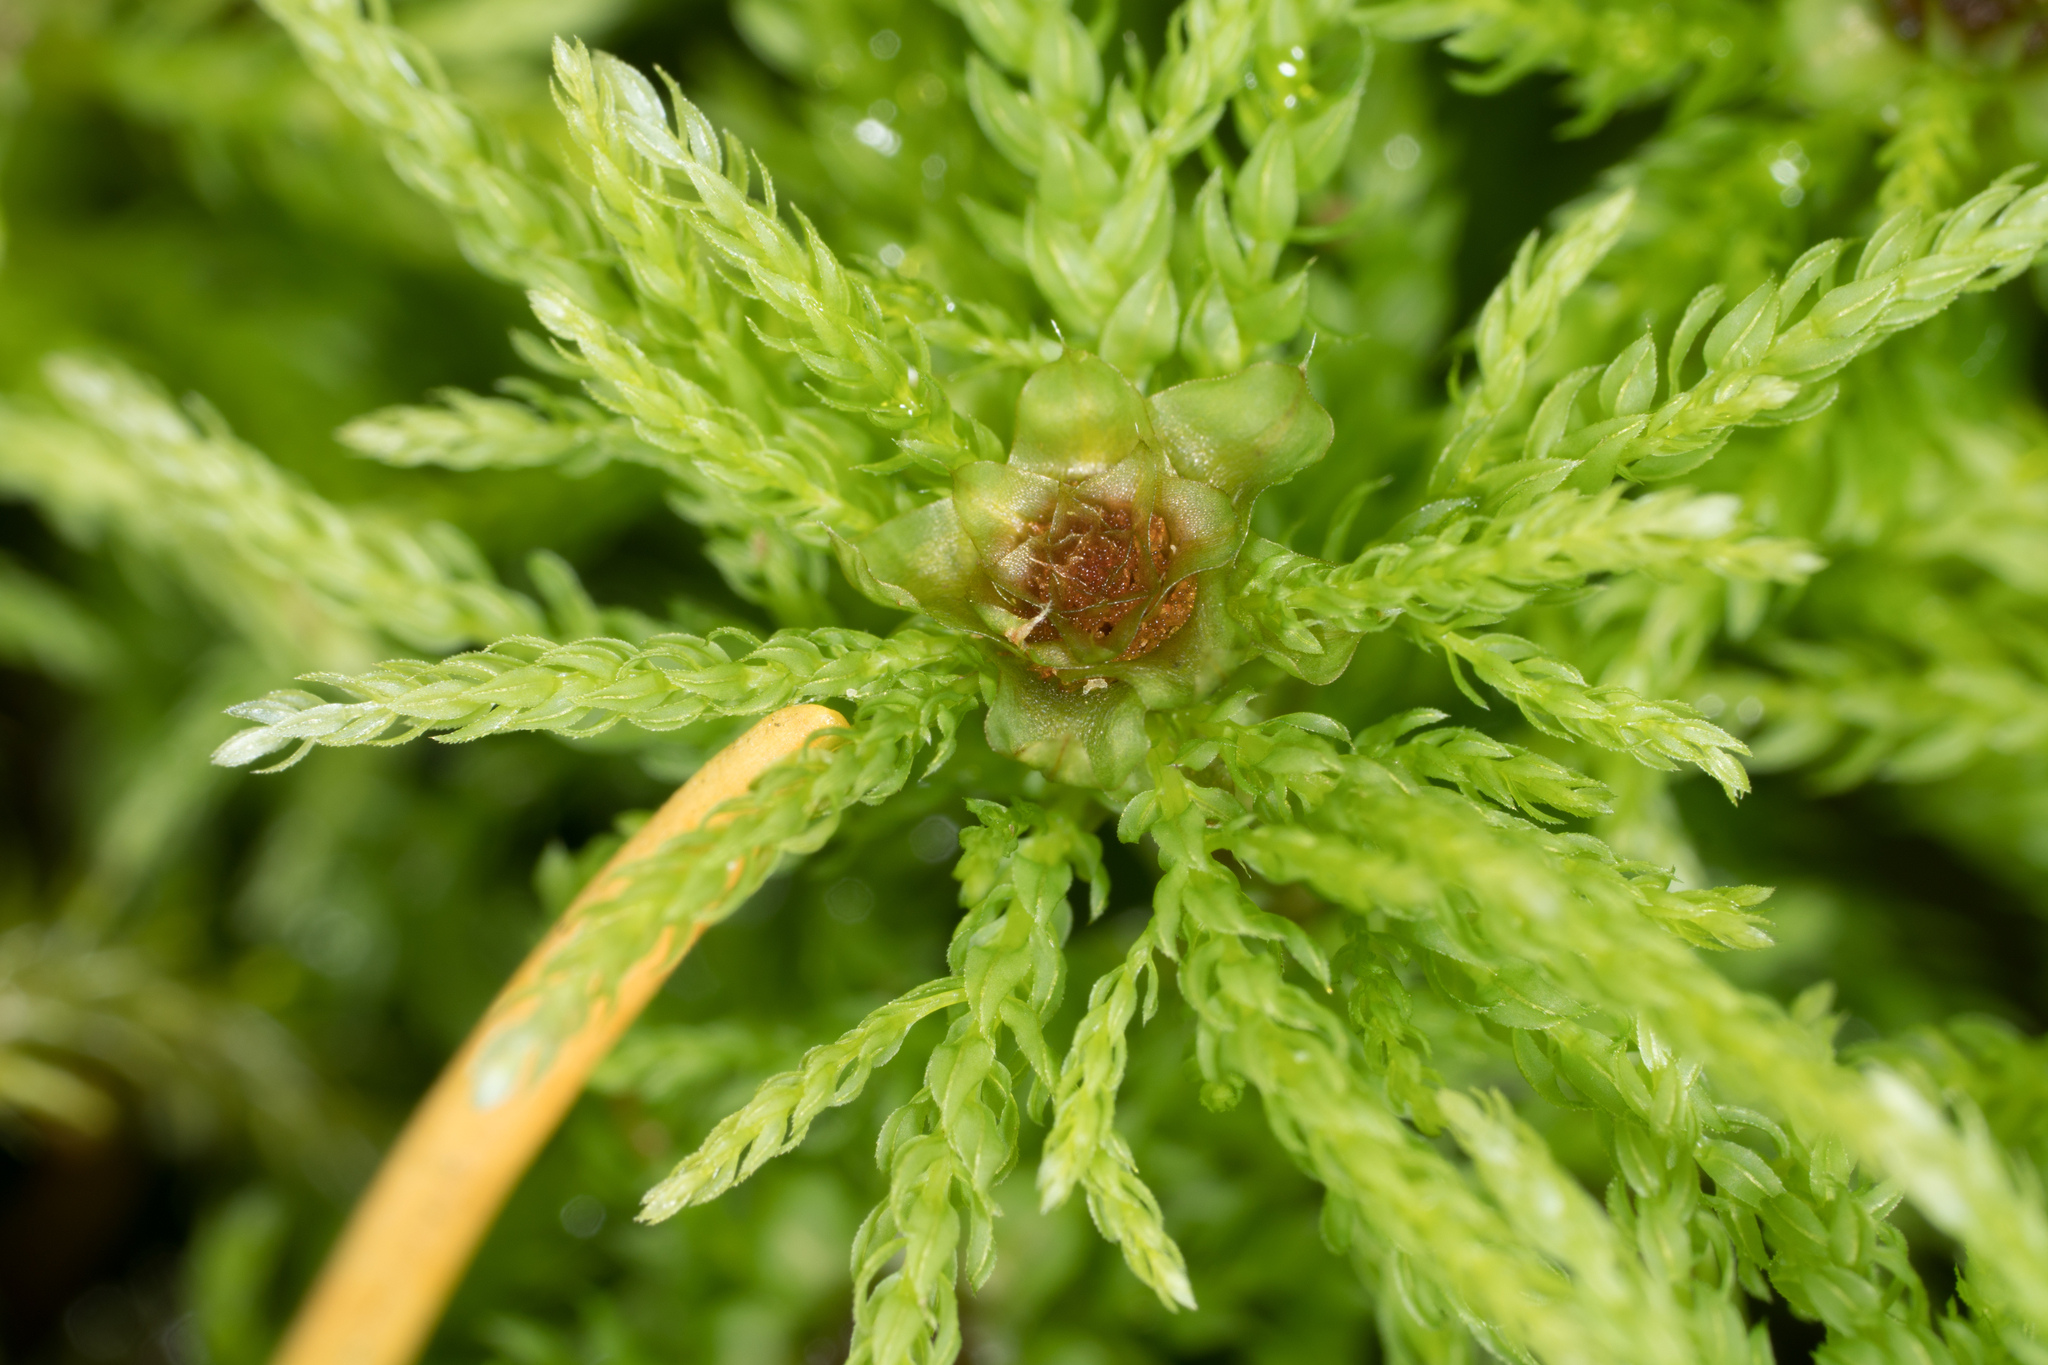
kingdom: Plantae
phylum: Bryophyta
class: Bryopsida
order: Bryales
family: Mniaceae
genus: Leucolepis
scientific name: Leucolepis acanthoneura
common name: Leucolepis umbrella moss
